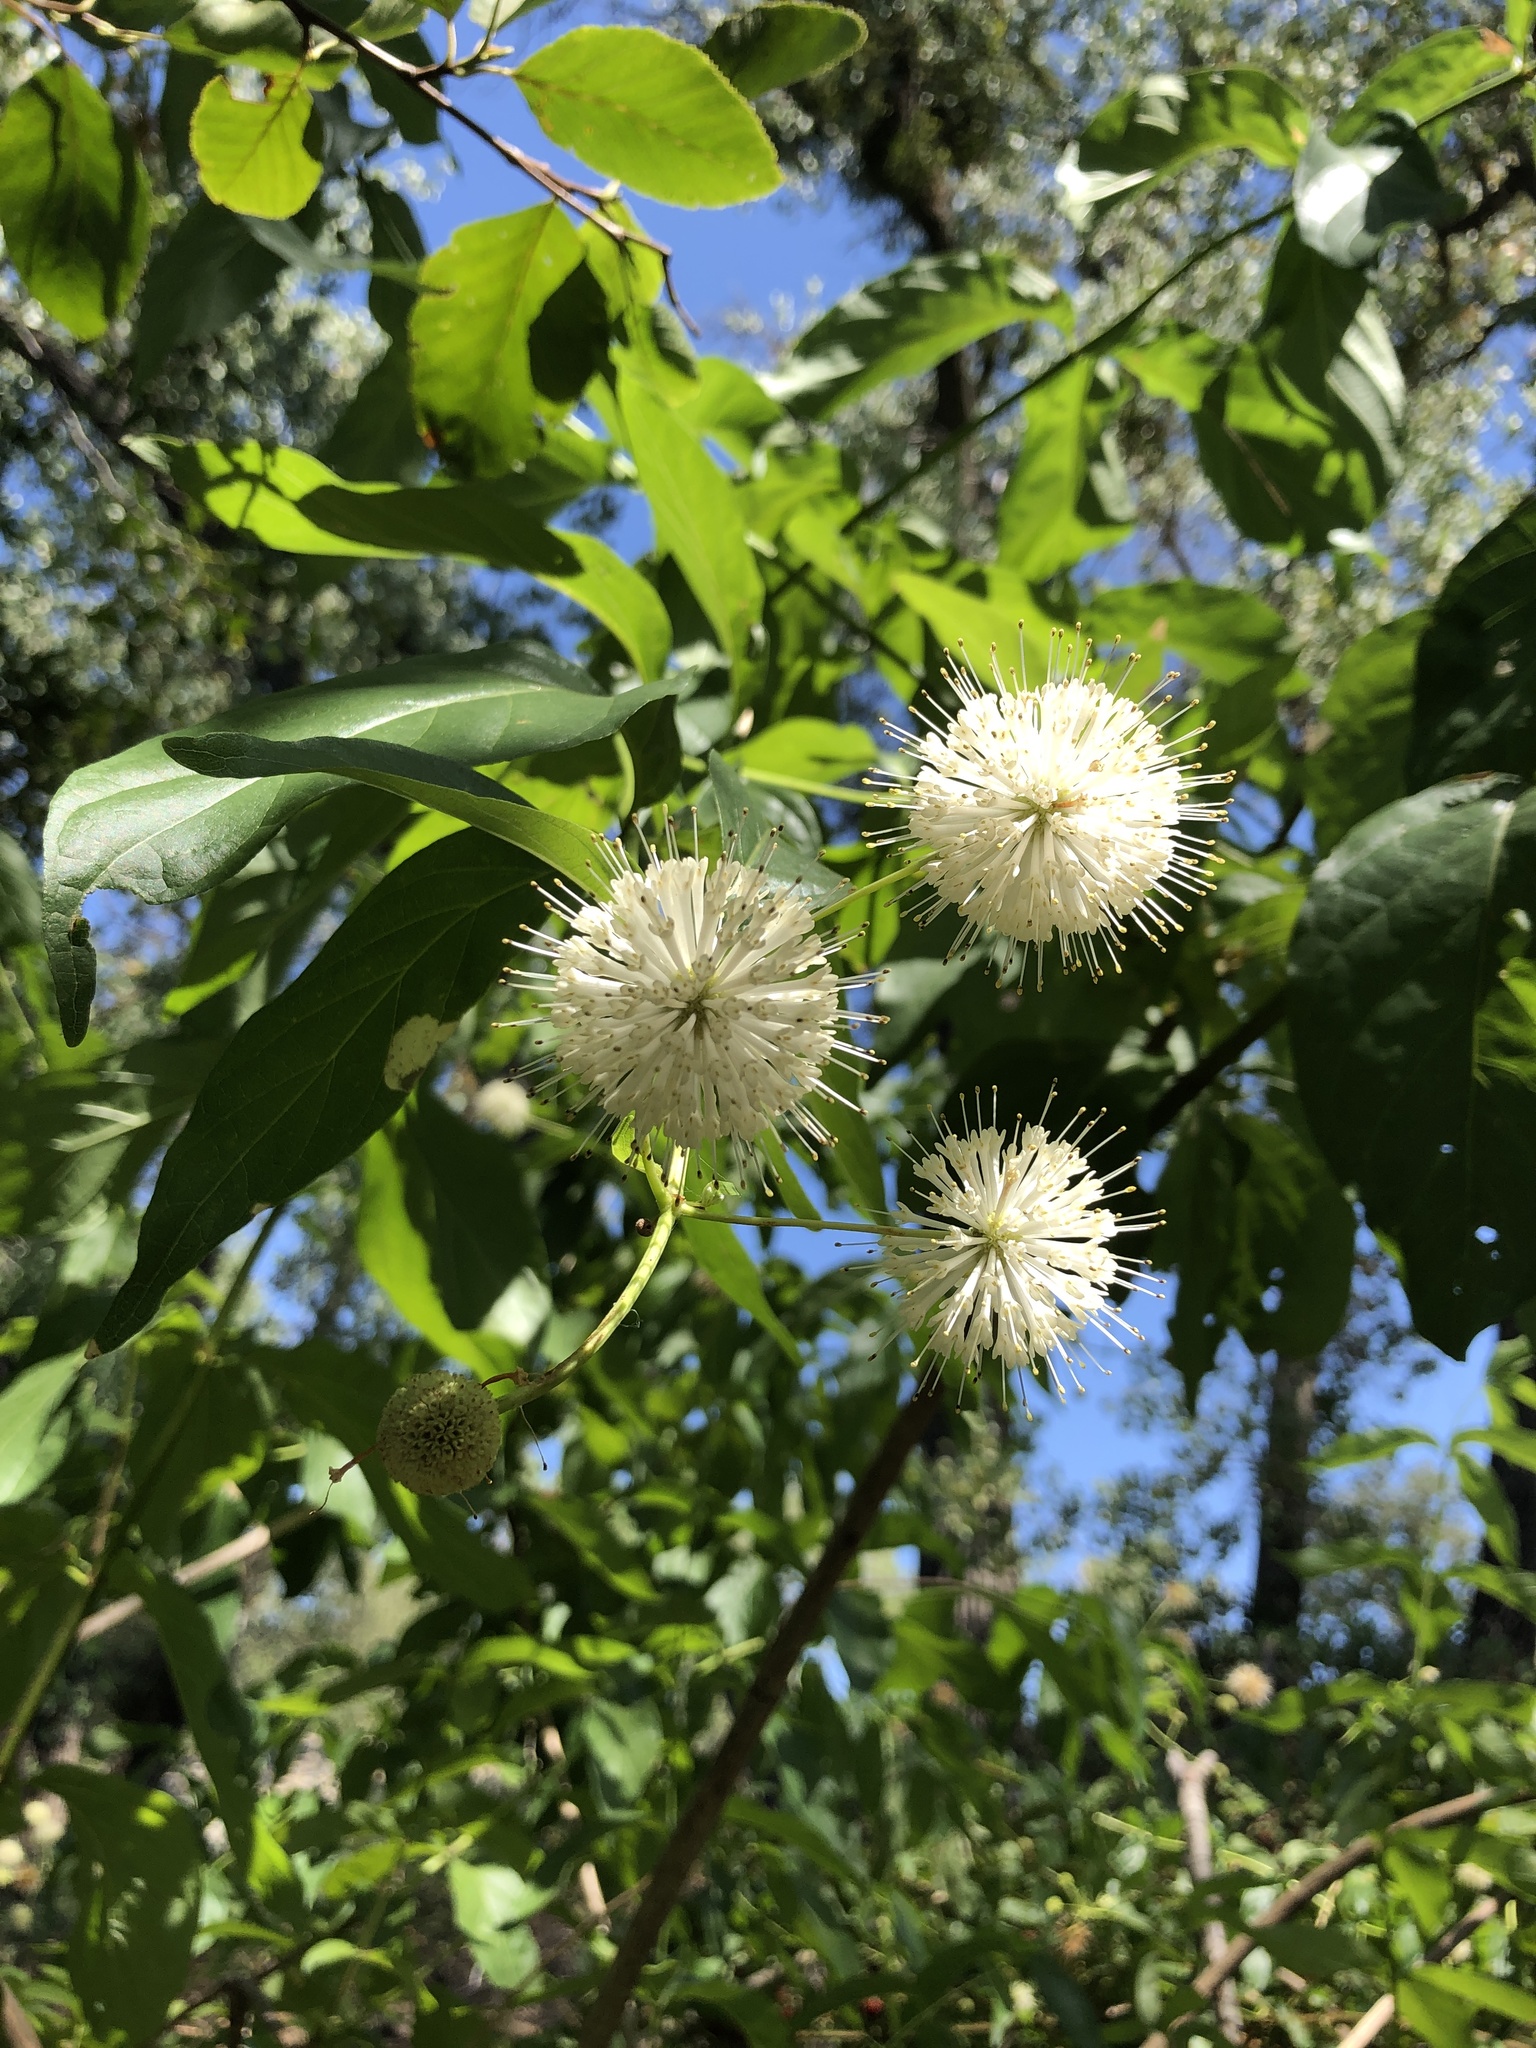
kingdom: Plantae
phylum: Tracheophyta
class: Magnoliopsida
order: Gentianales
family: Rubiaceae
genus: Cephalanthus
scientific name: Cephalanthus occidentalis
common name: Button-willow
